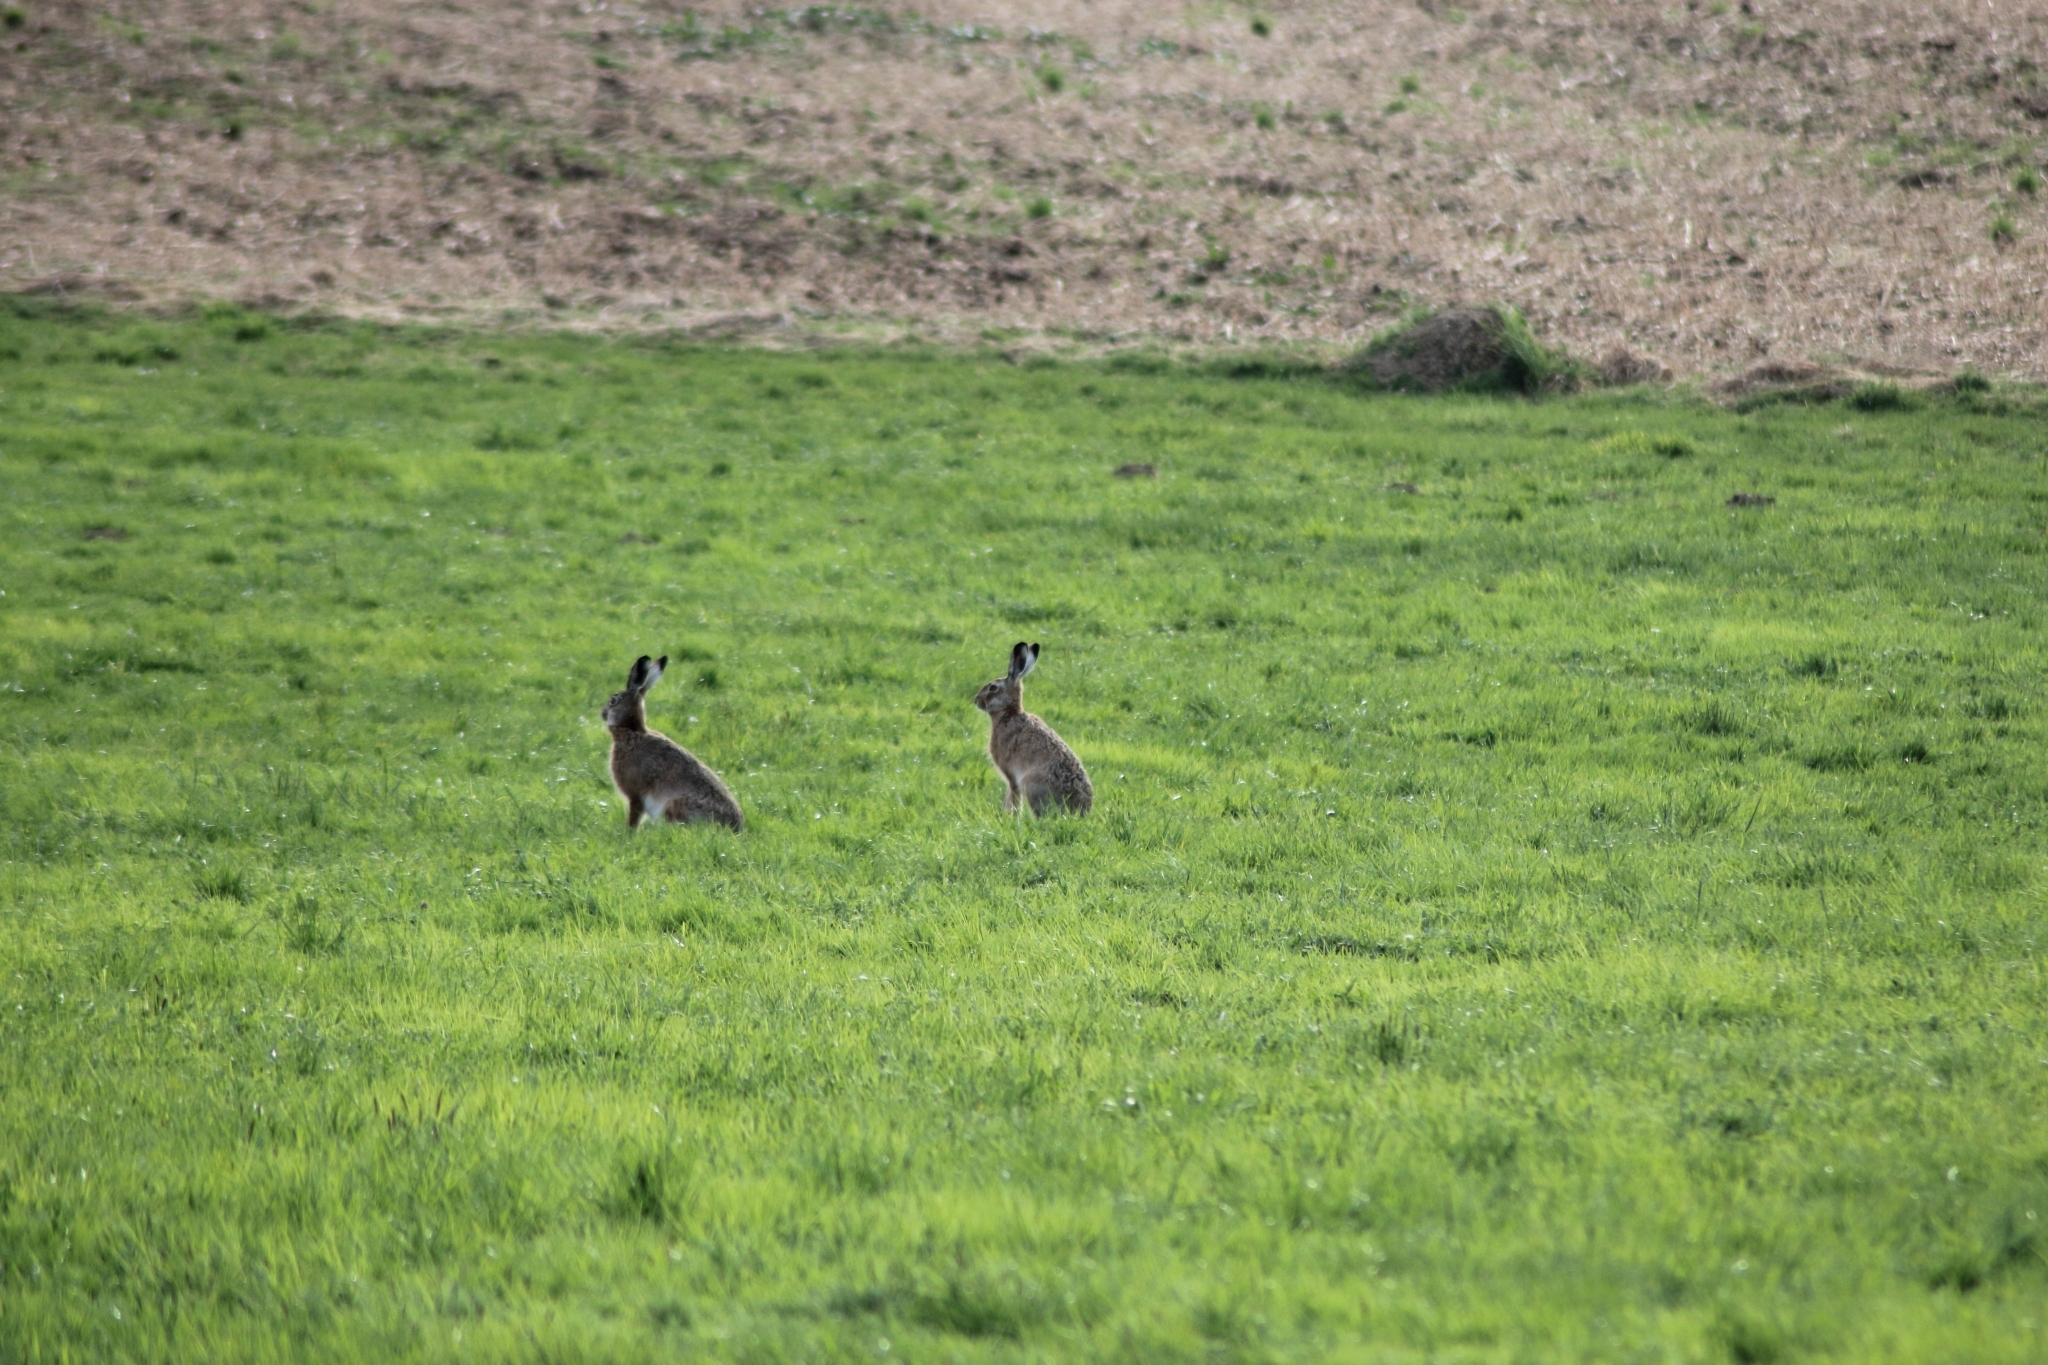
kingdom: Animalia
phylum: Chordata
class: Mammalia
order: Lagomorpha
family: Leporidae
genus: Lepus
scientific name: Lepus europaeus
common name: European hare
